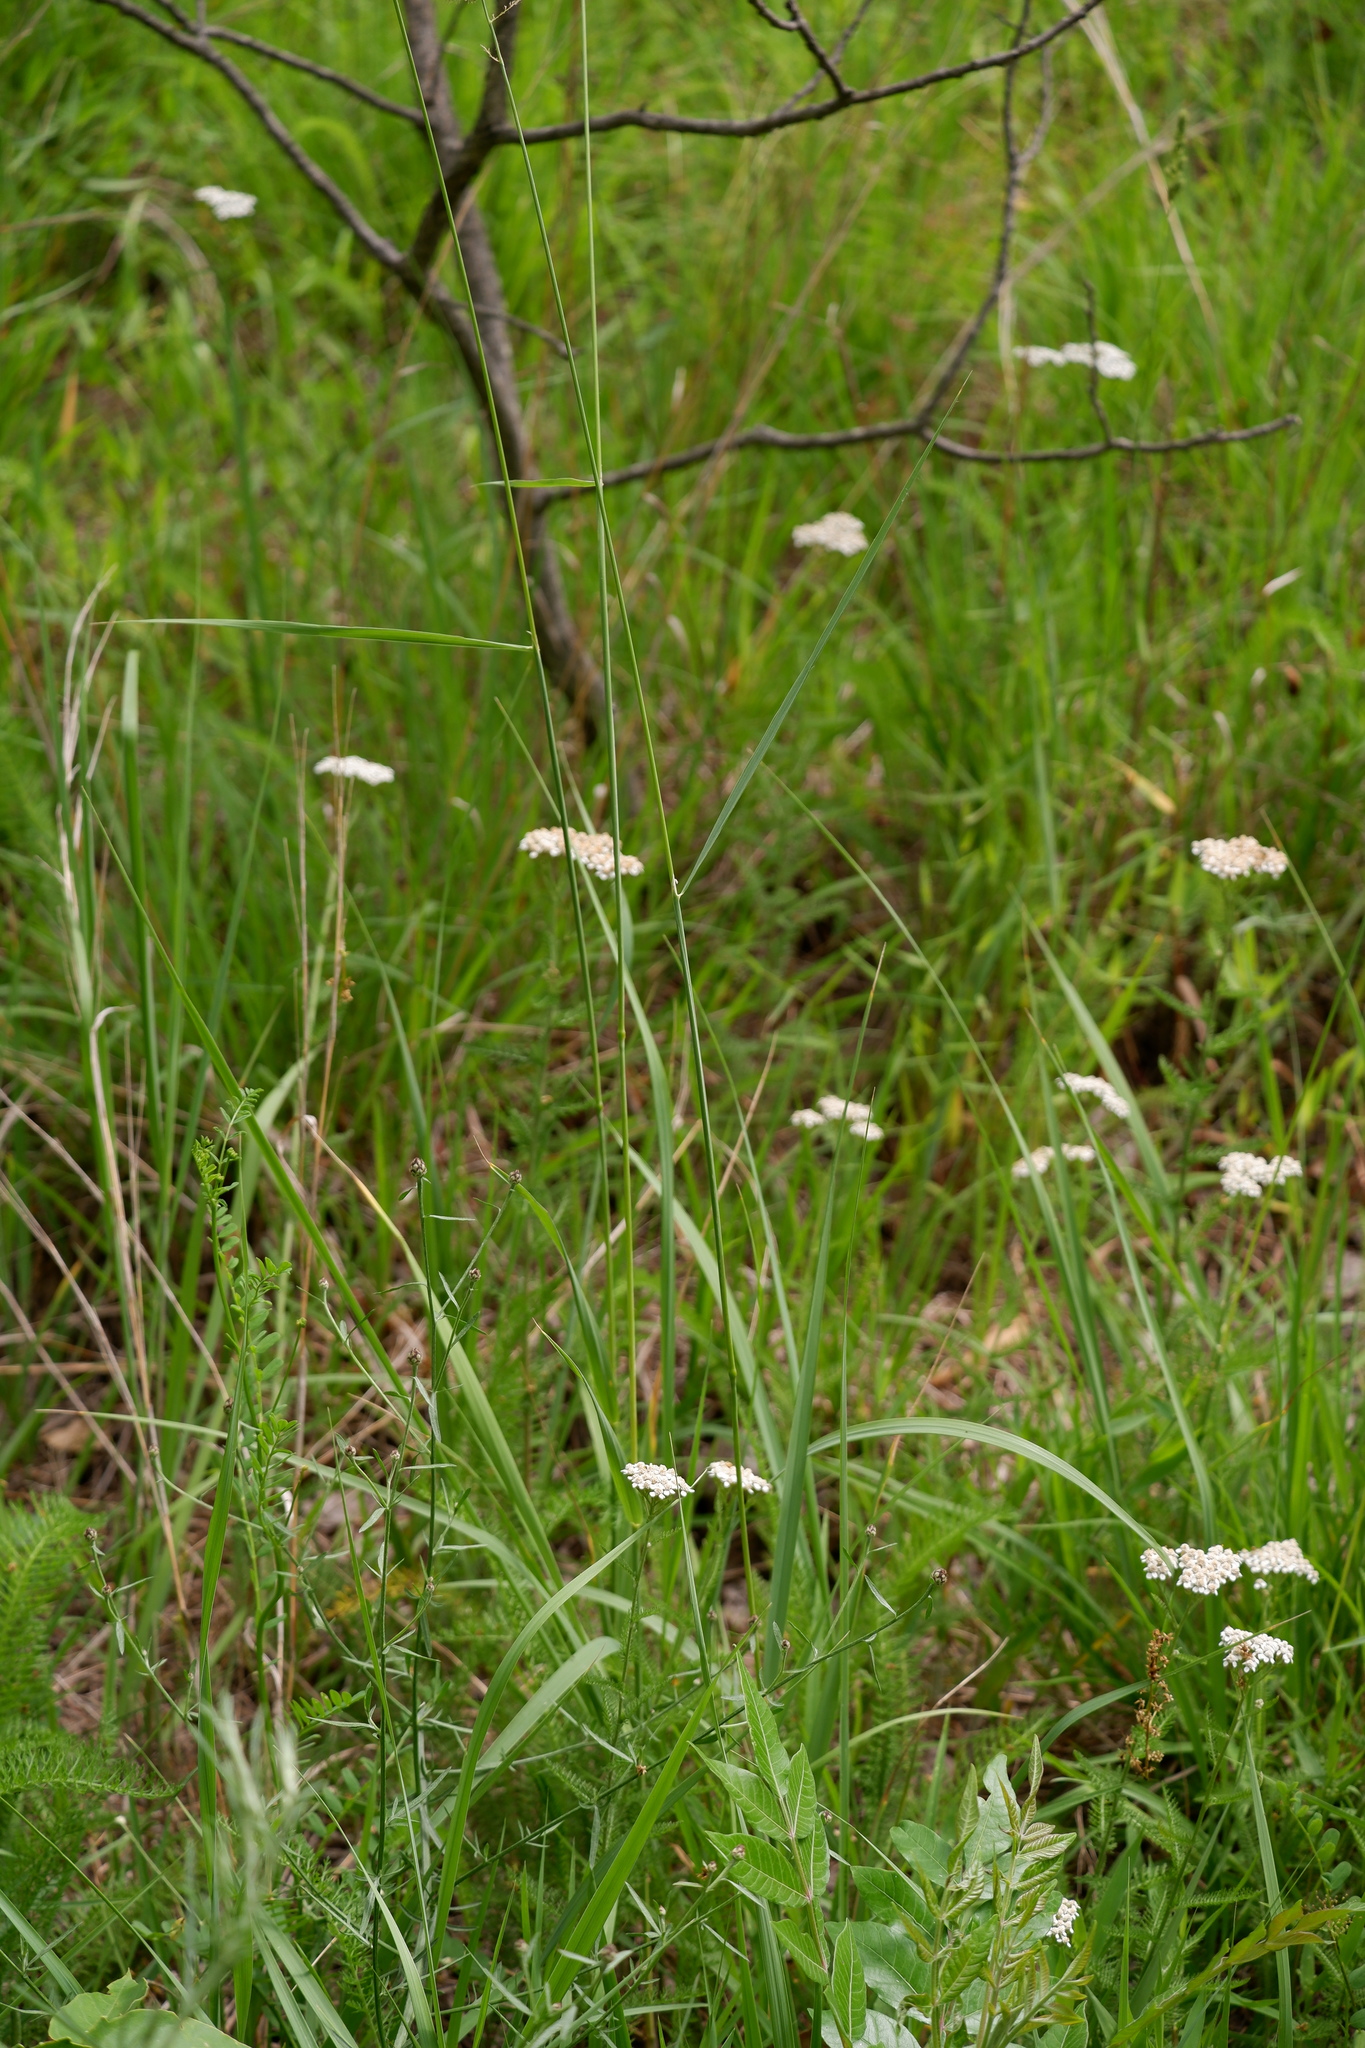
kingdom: Plantae
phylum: Tracheophyta
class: Liliopsida
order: Poales
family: Poaceae
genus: Calamagrostis
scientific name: Calamagrostis epigejos
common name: Wood small-reed
